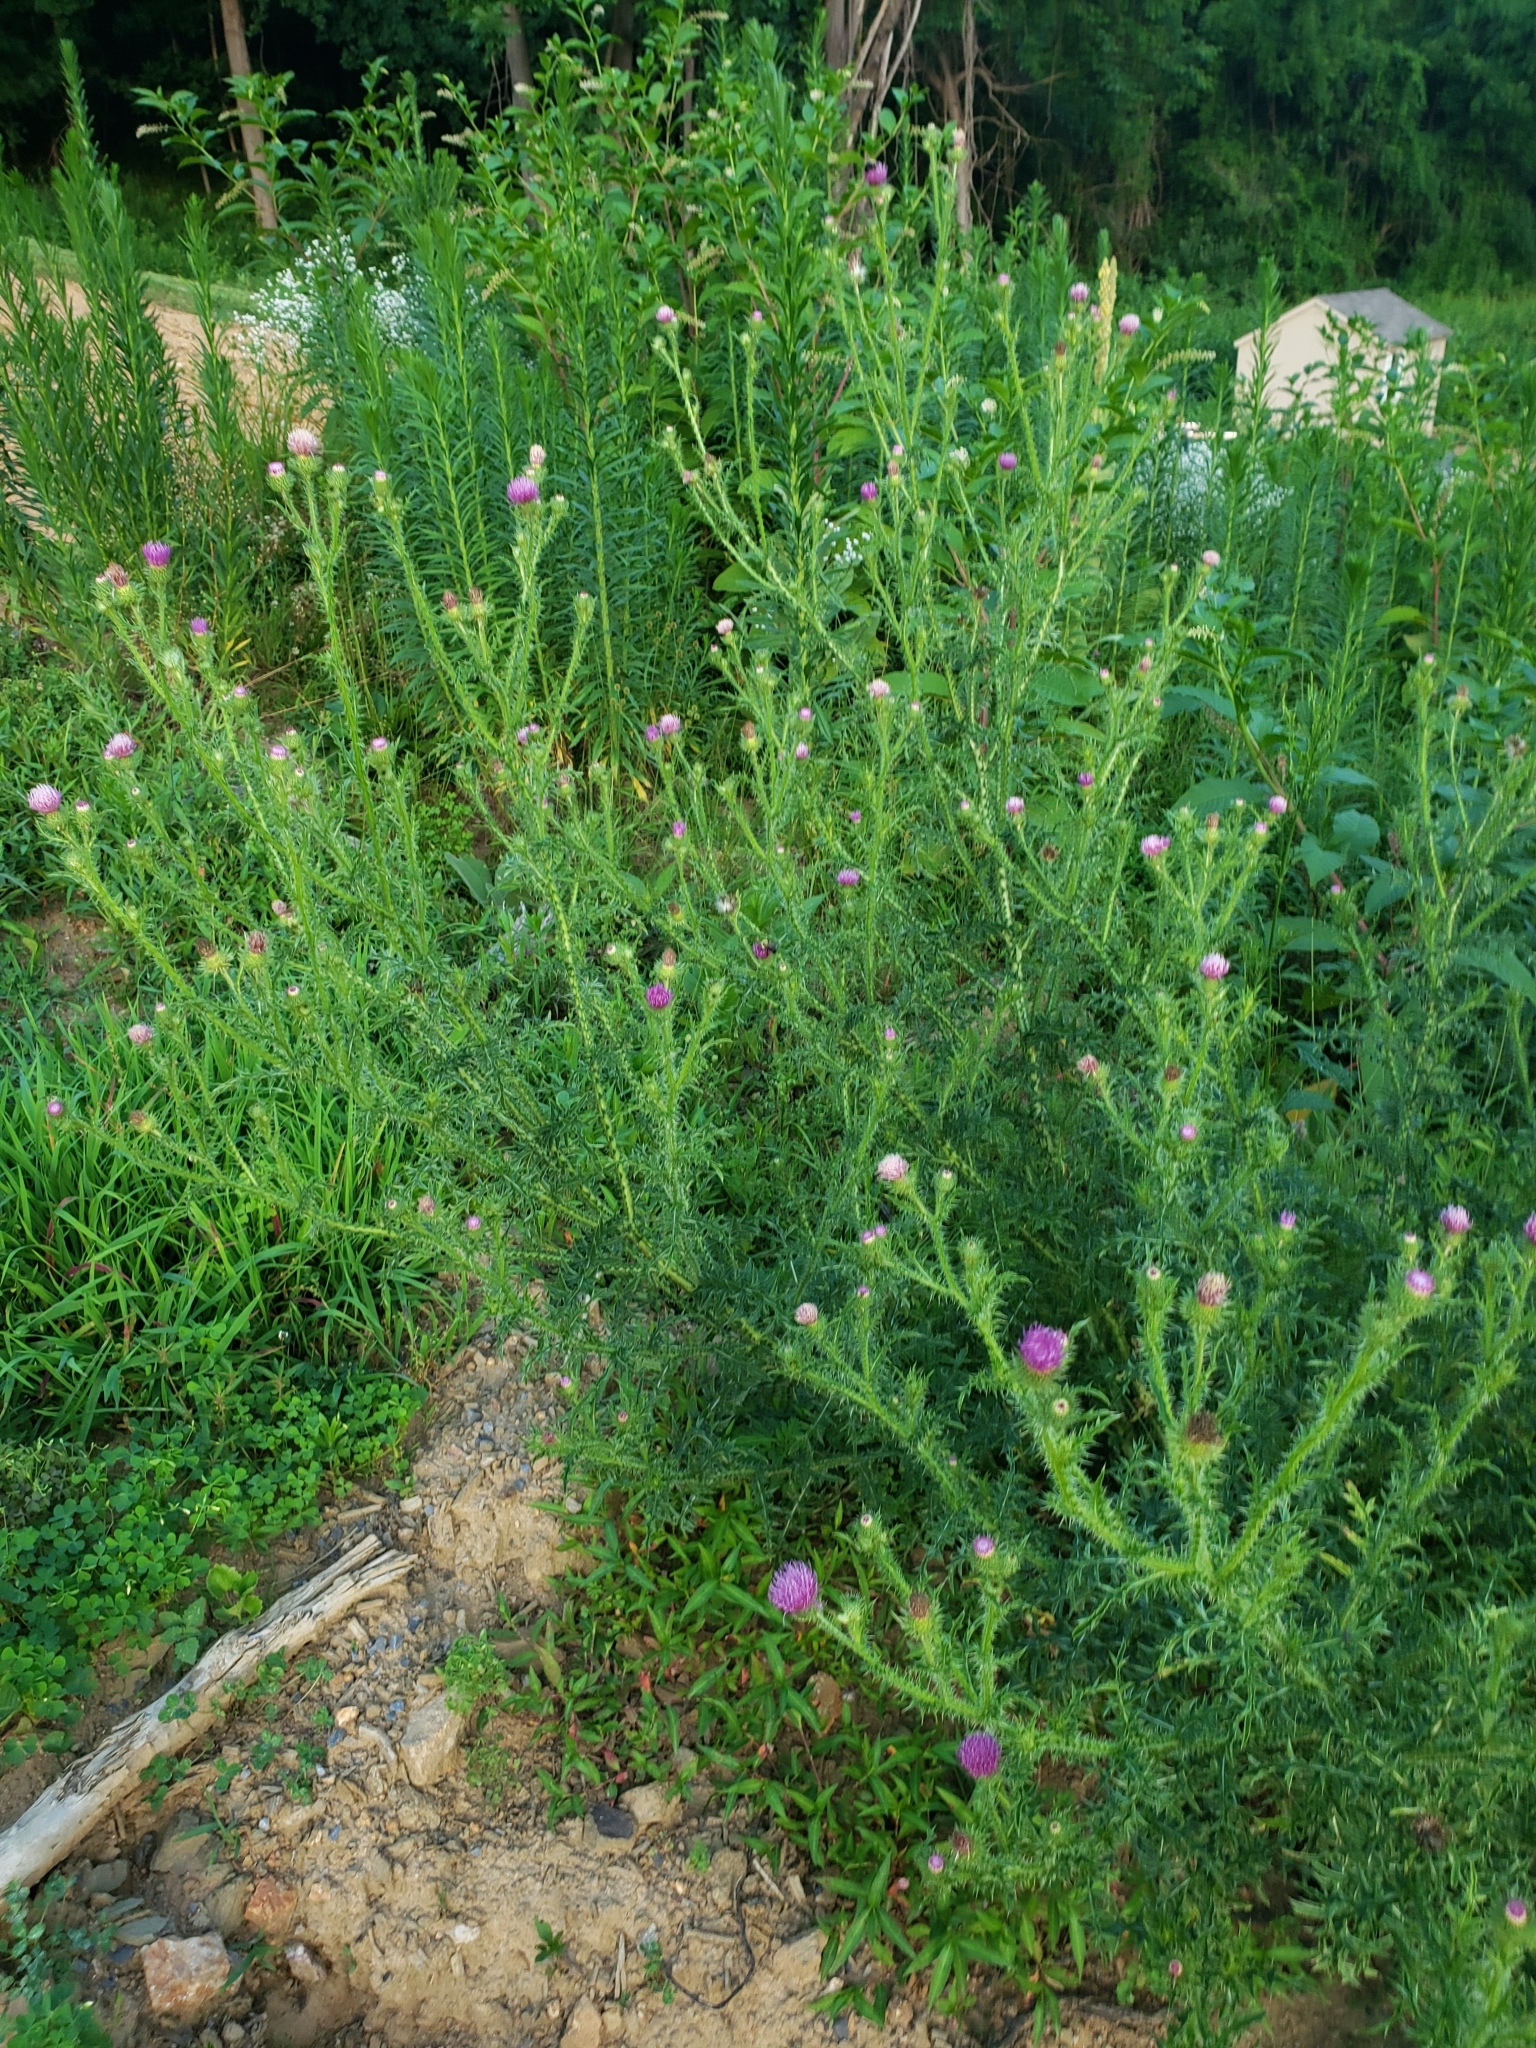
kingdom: Plantae
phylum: Tracheophyta
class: Magnoliopsida
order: Asterales
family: Asteraceae
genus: Carduus
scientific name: Carduus acanthoides
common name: Plumeless thistle
